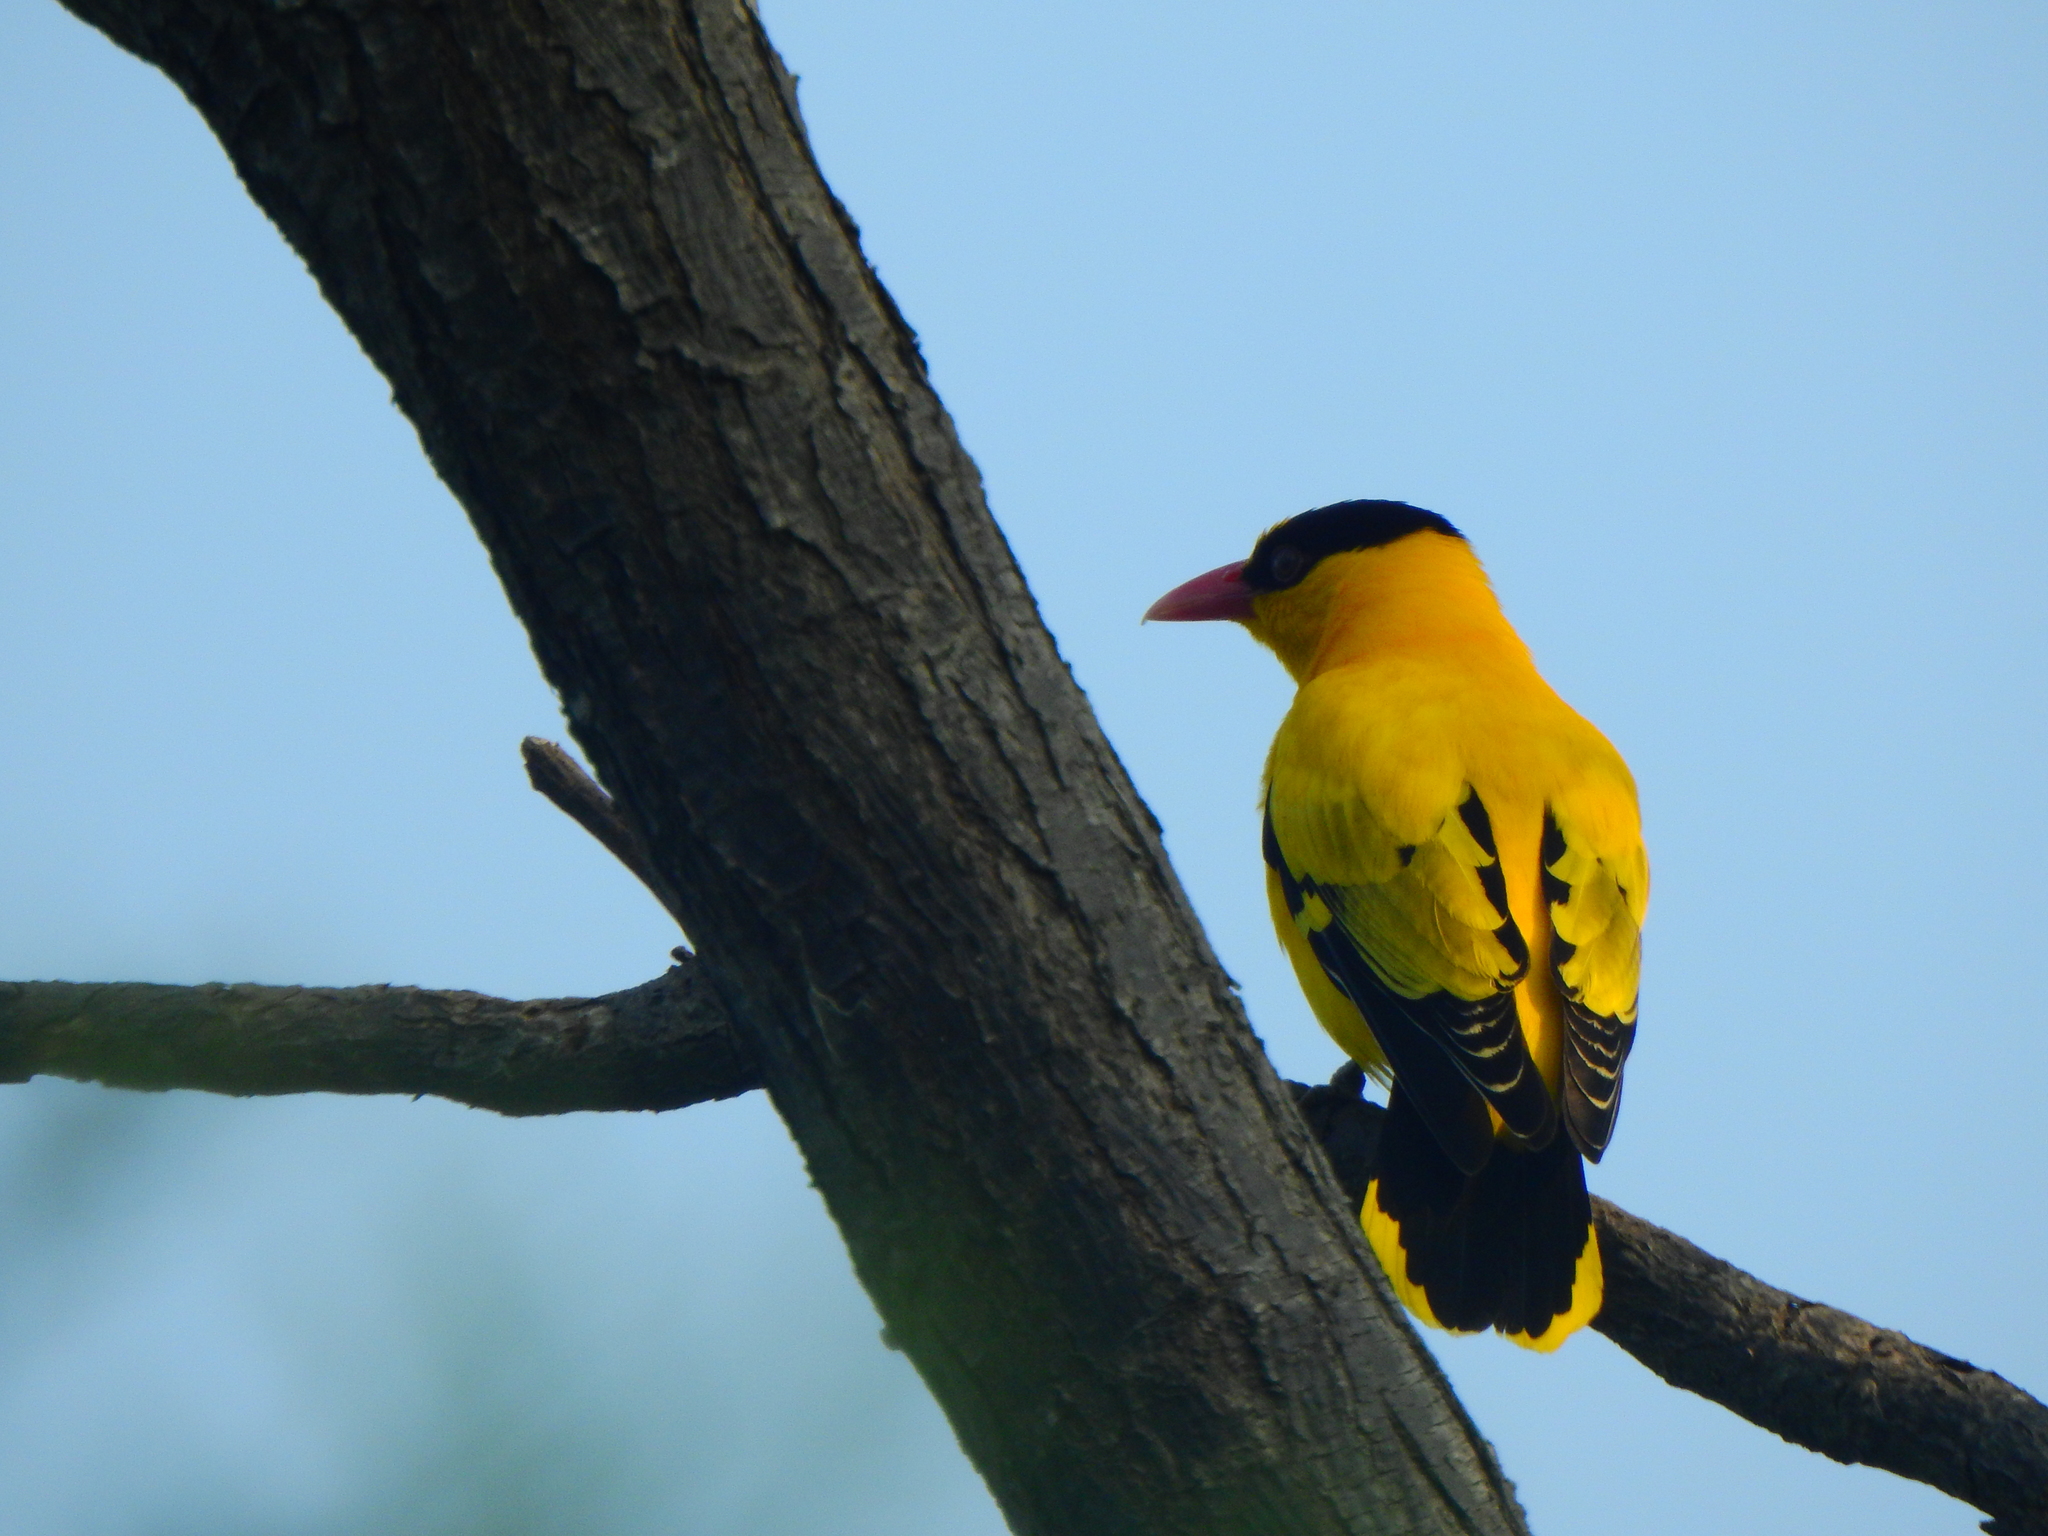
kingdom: Animalia
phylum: Chordata
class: Aves
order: Passeriformes
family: Oriolidae
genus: Oriolus
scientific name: Oriolus chinensis
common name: Black-naped oriole
